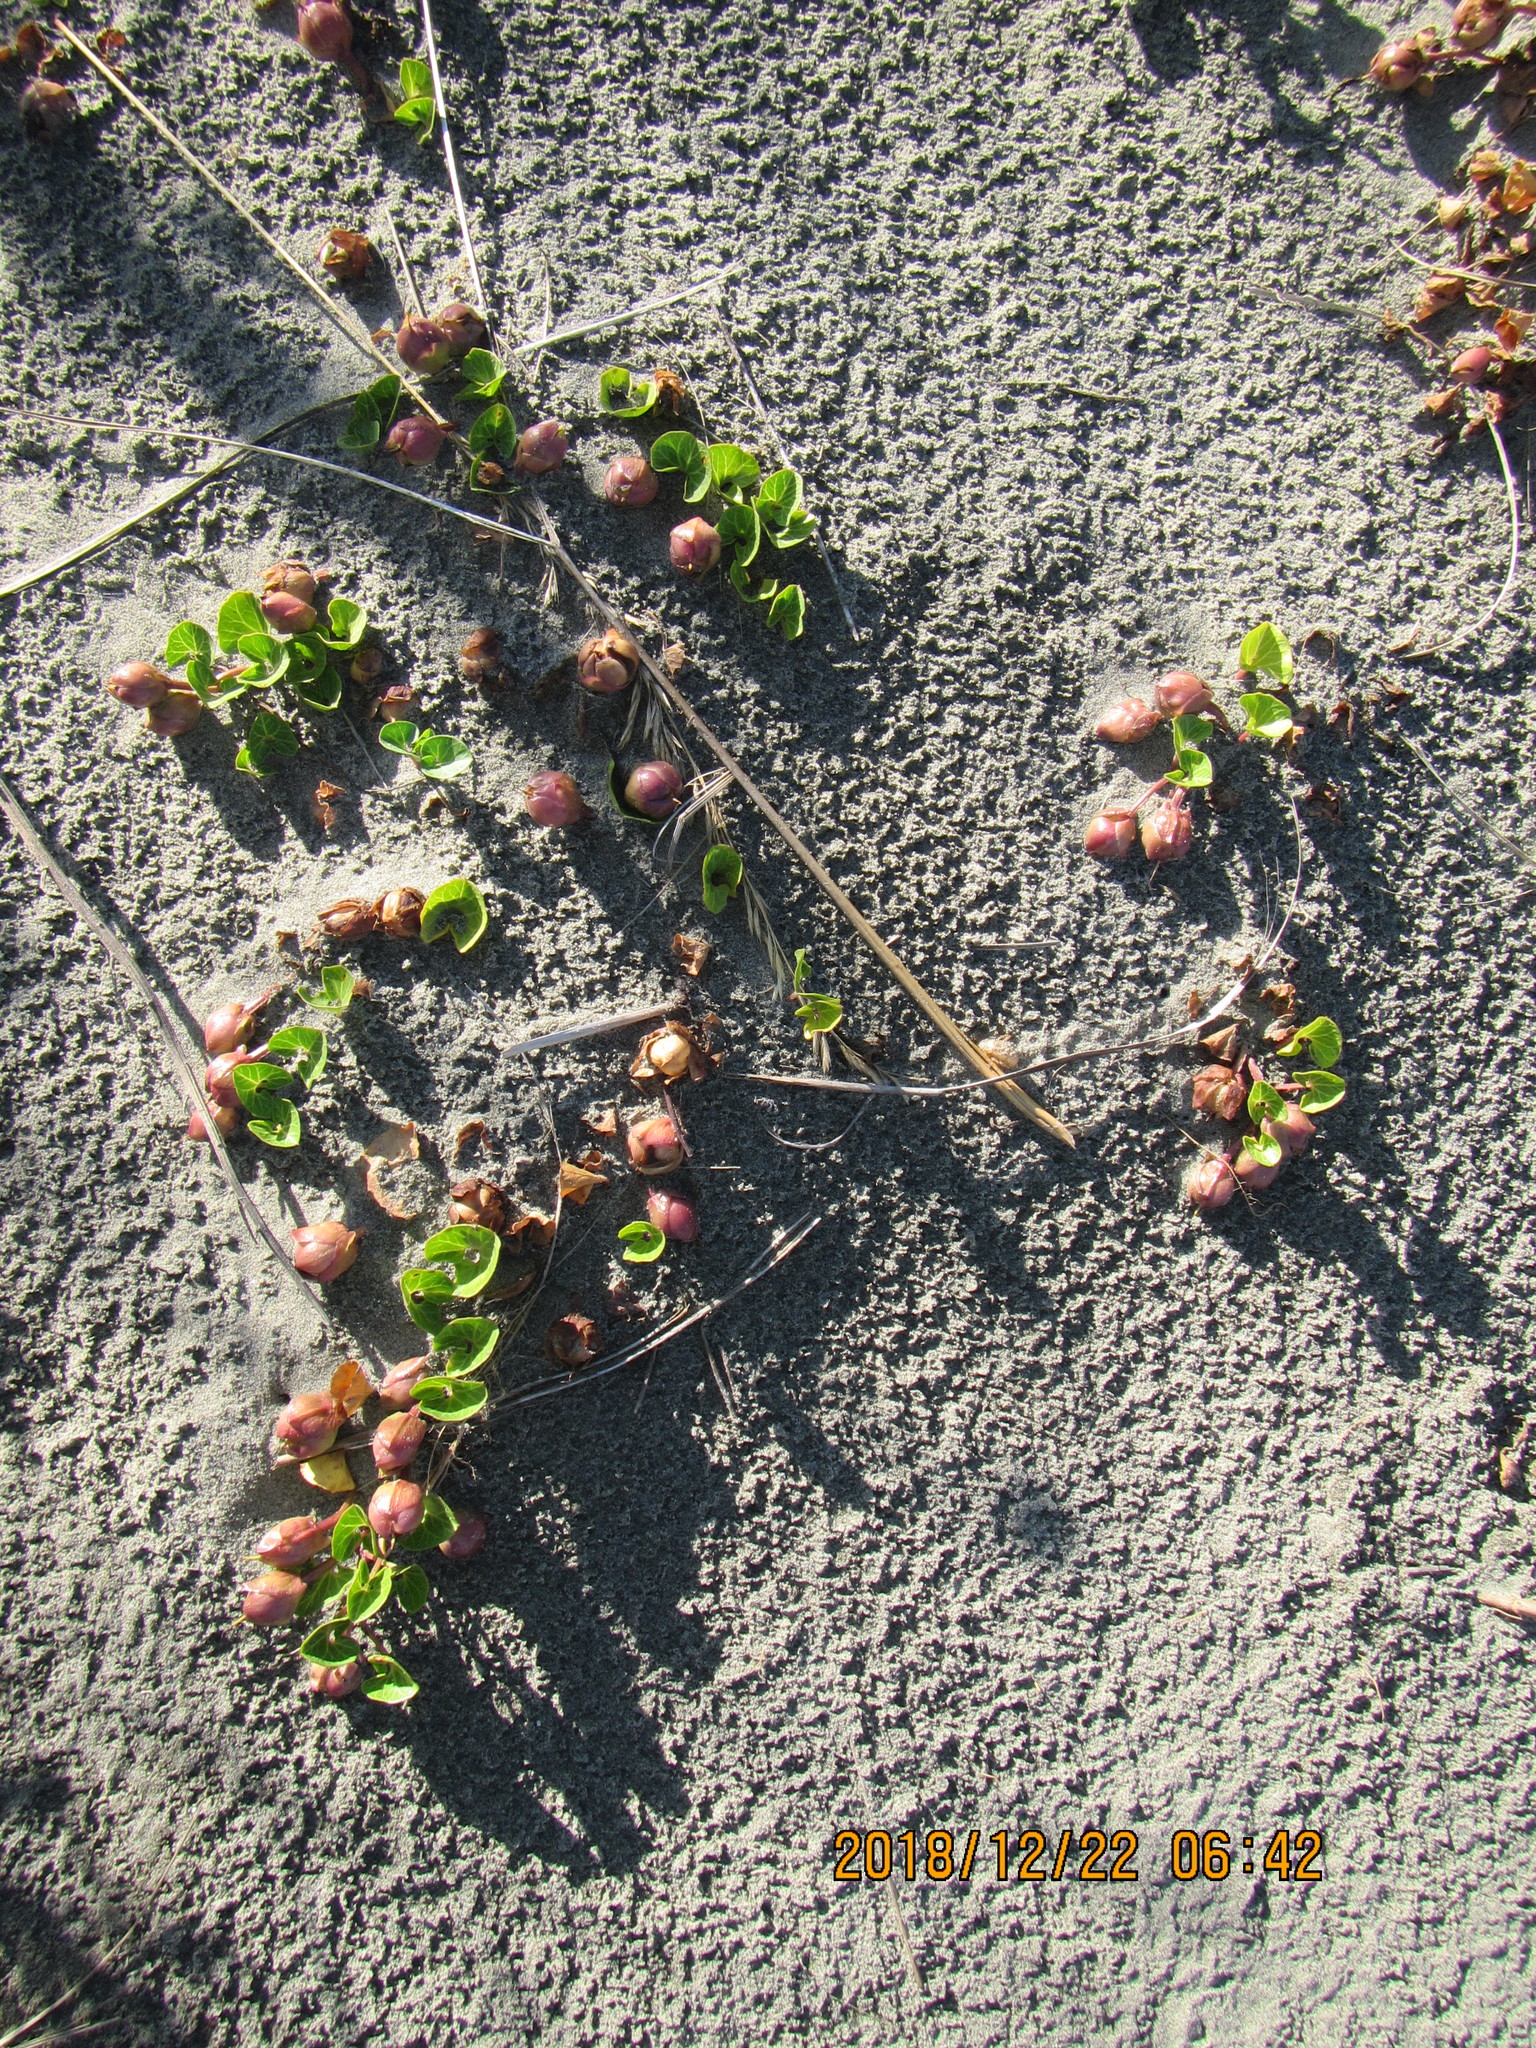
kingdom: Plantae
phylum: Tracheophyta
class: Magnoliopsida
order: Solanales
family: Convolvulaceae
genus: Calystegia
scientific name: Calystegia soldanella
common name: Sea bindweed
